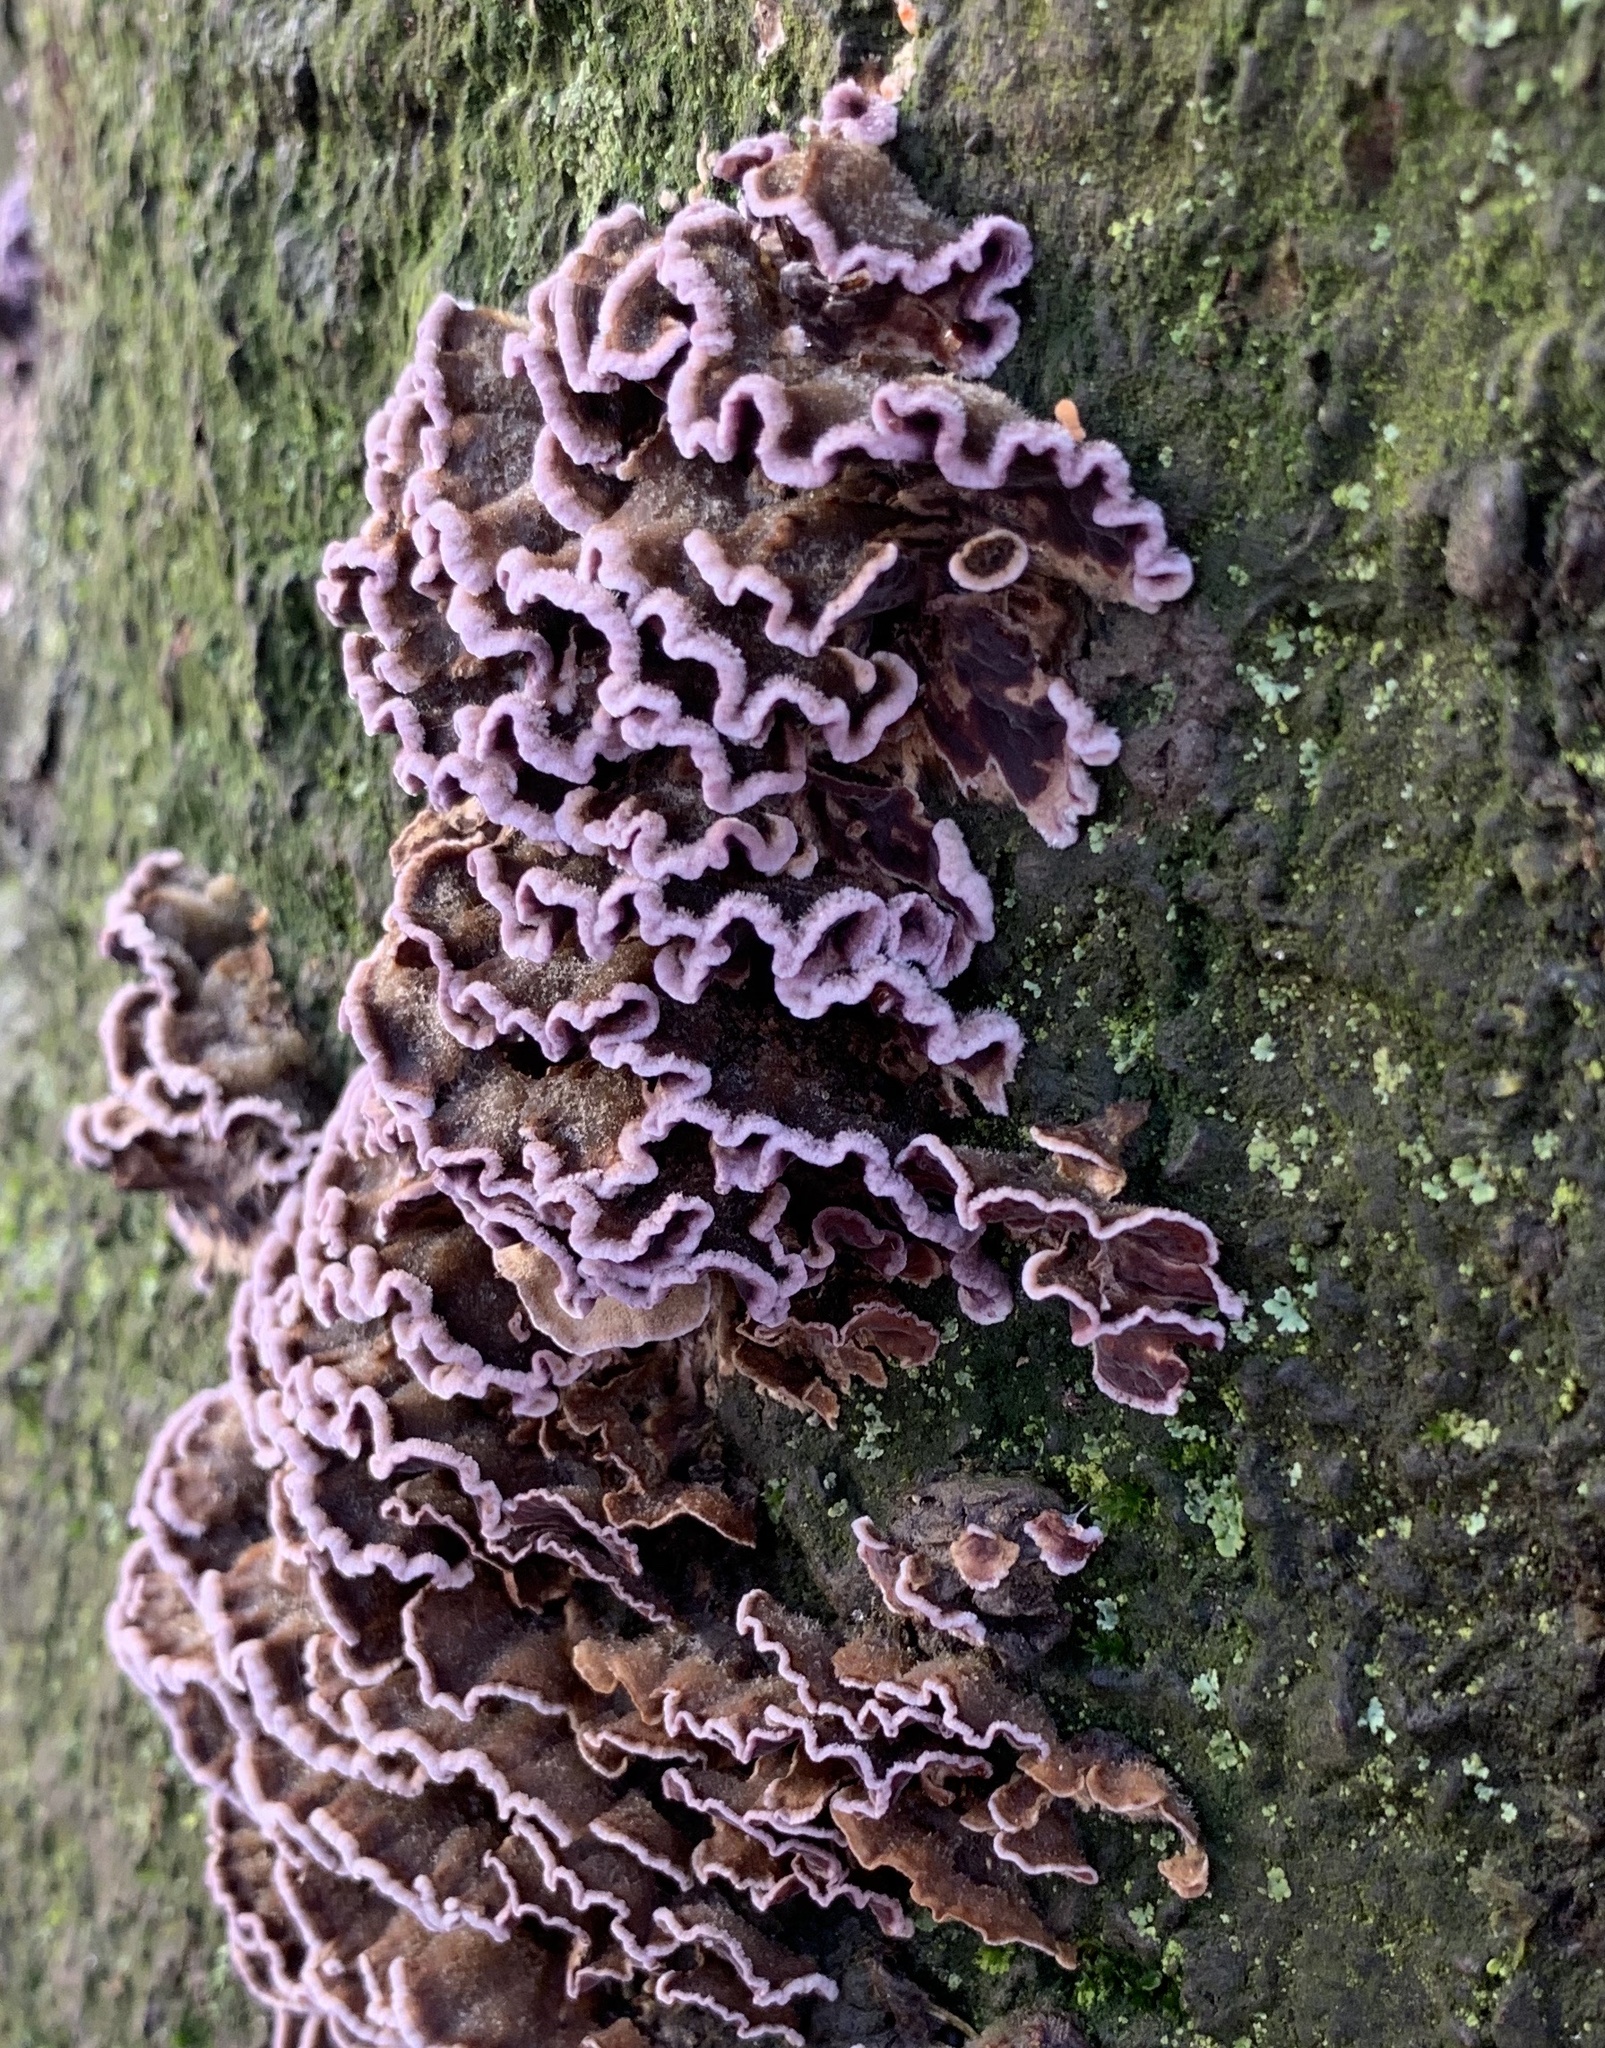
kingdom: Fungi
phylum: Basidiomycota
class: Agaricomycetes
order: Agaricales
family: Cyphellaceae
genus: Chondrostereum
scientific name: Chondrostereum purpureum
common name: Silver leaf disease
